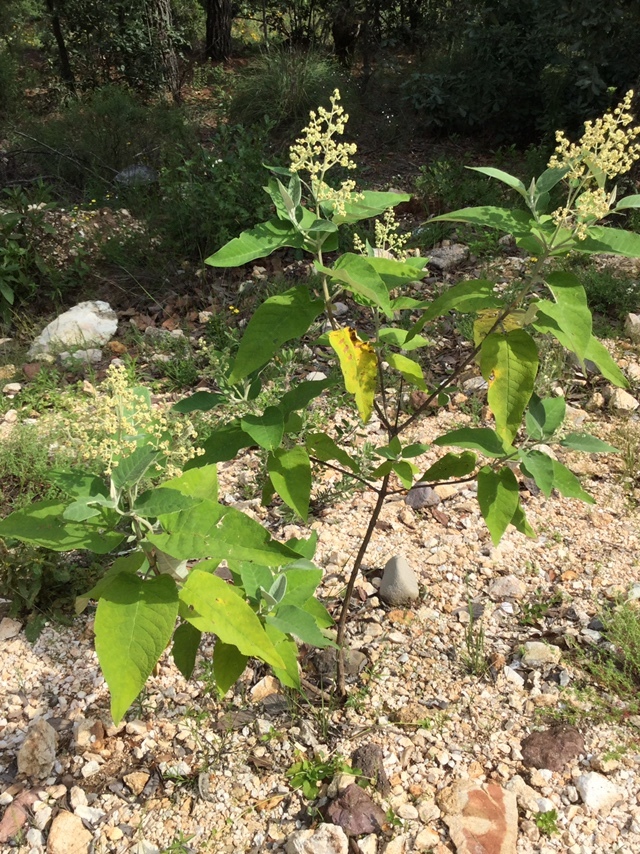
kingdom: Plantae
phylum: Tracheophyta
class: Magnoliopsida
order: Lamiales
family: Scrophulariaceae
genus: Buddleja
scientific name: Buddleja cordata
